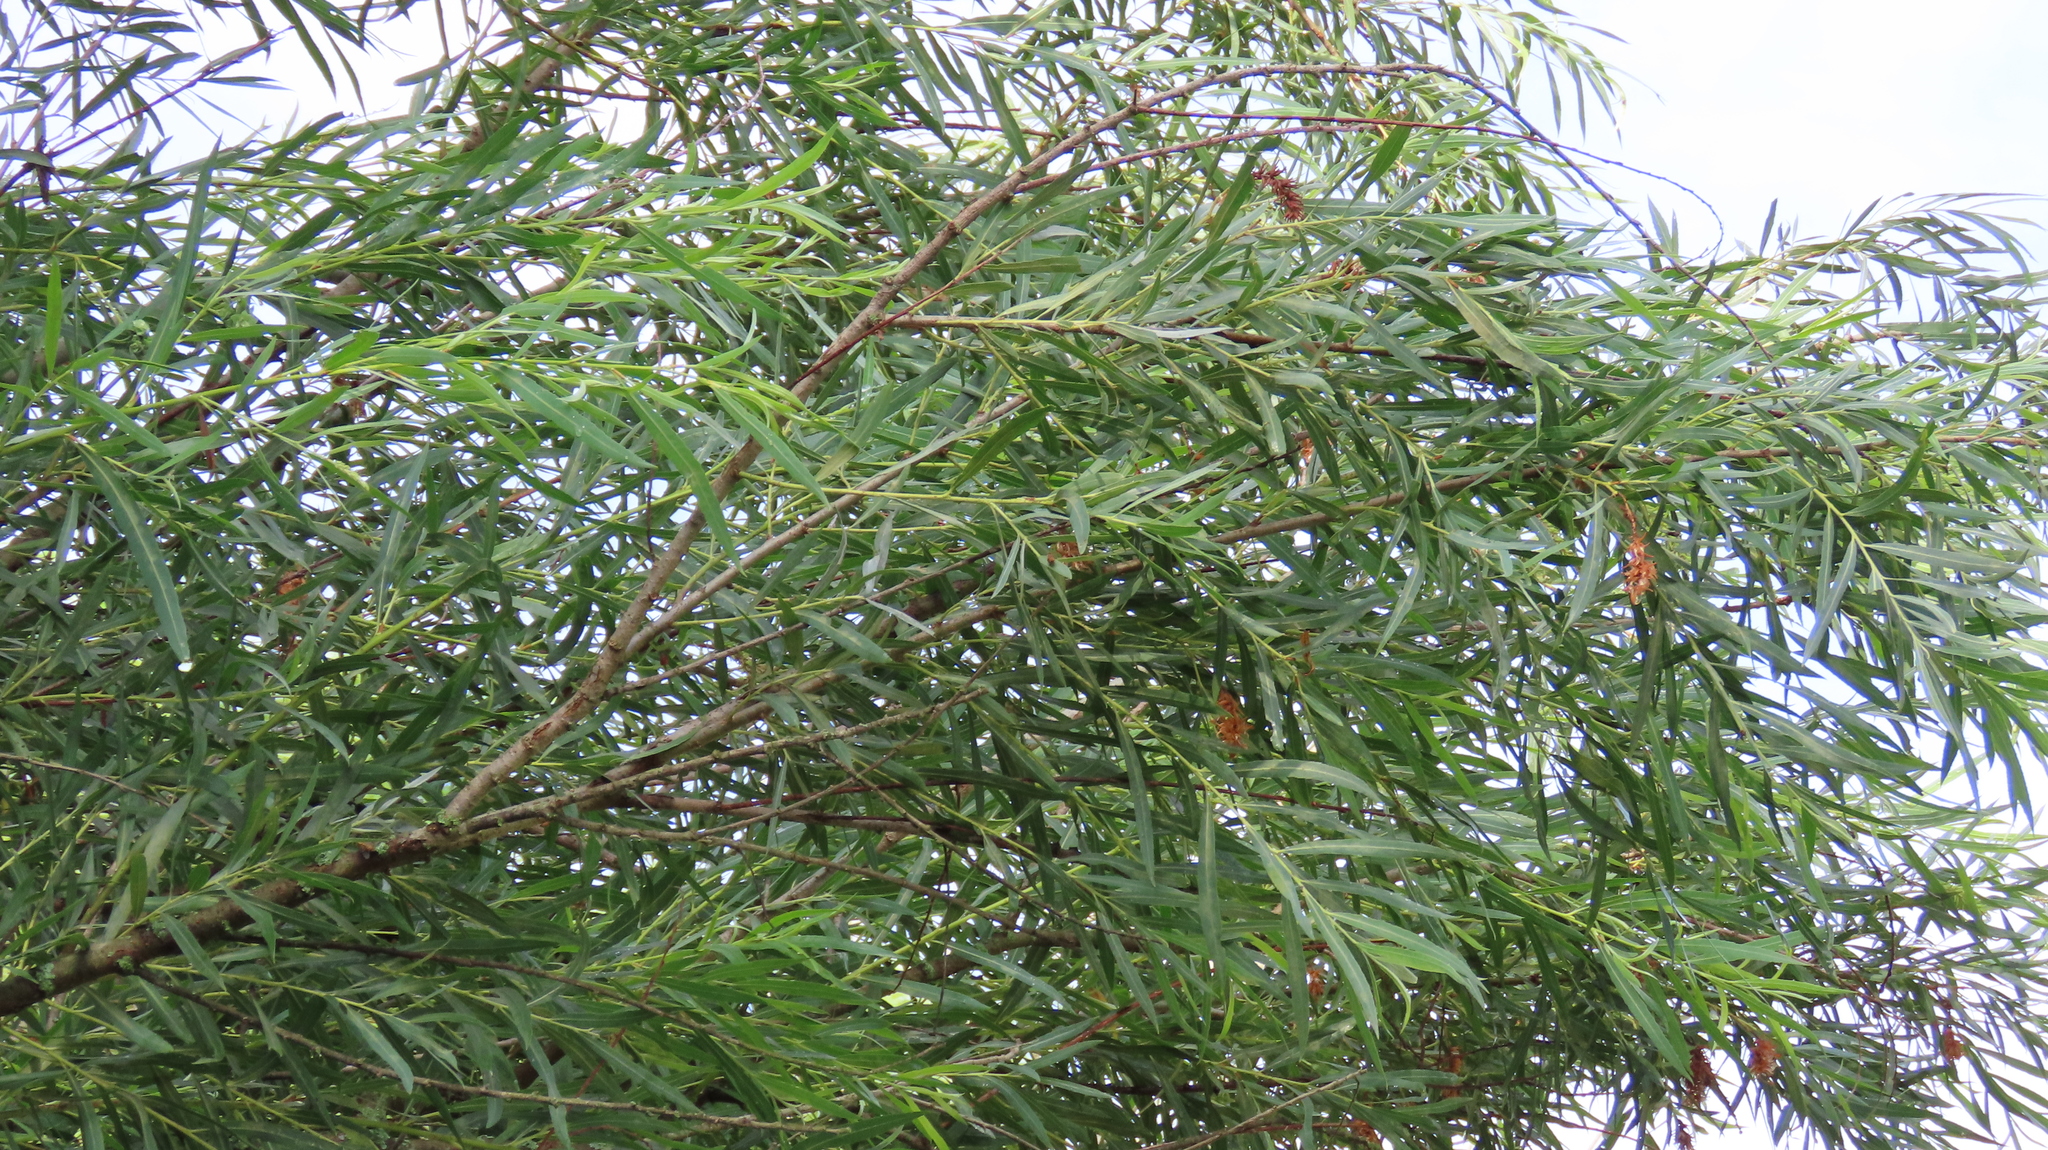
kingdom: Plantae
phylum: Tracheophyta
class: Magnoliopsida
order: Malpighiales
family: Salicaceae
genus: Salix
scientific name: Salix interior
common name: Sandbar willow
